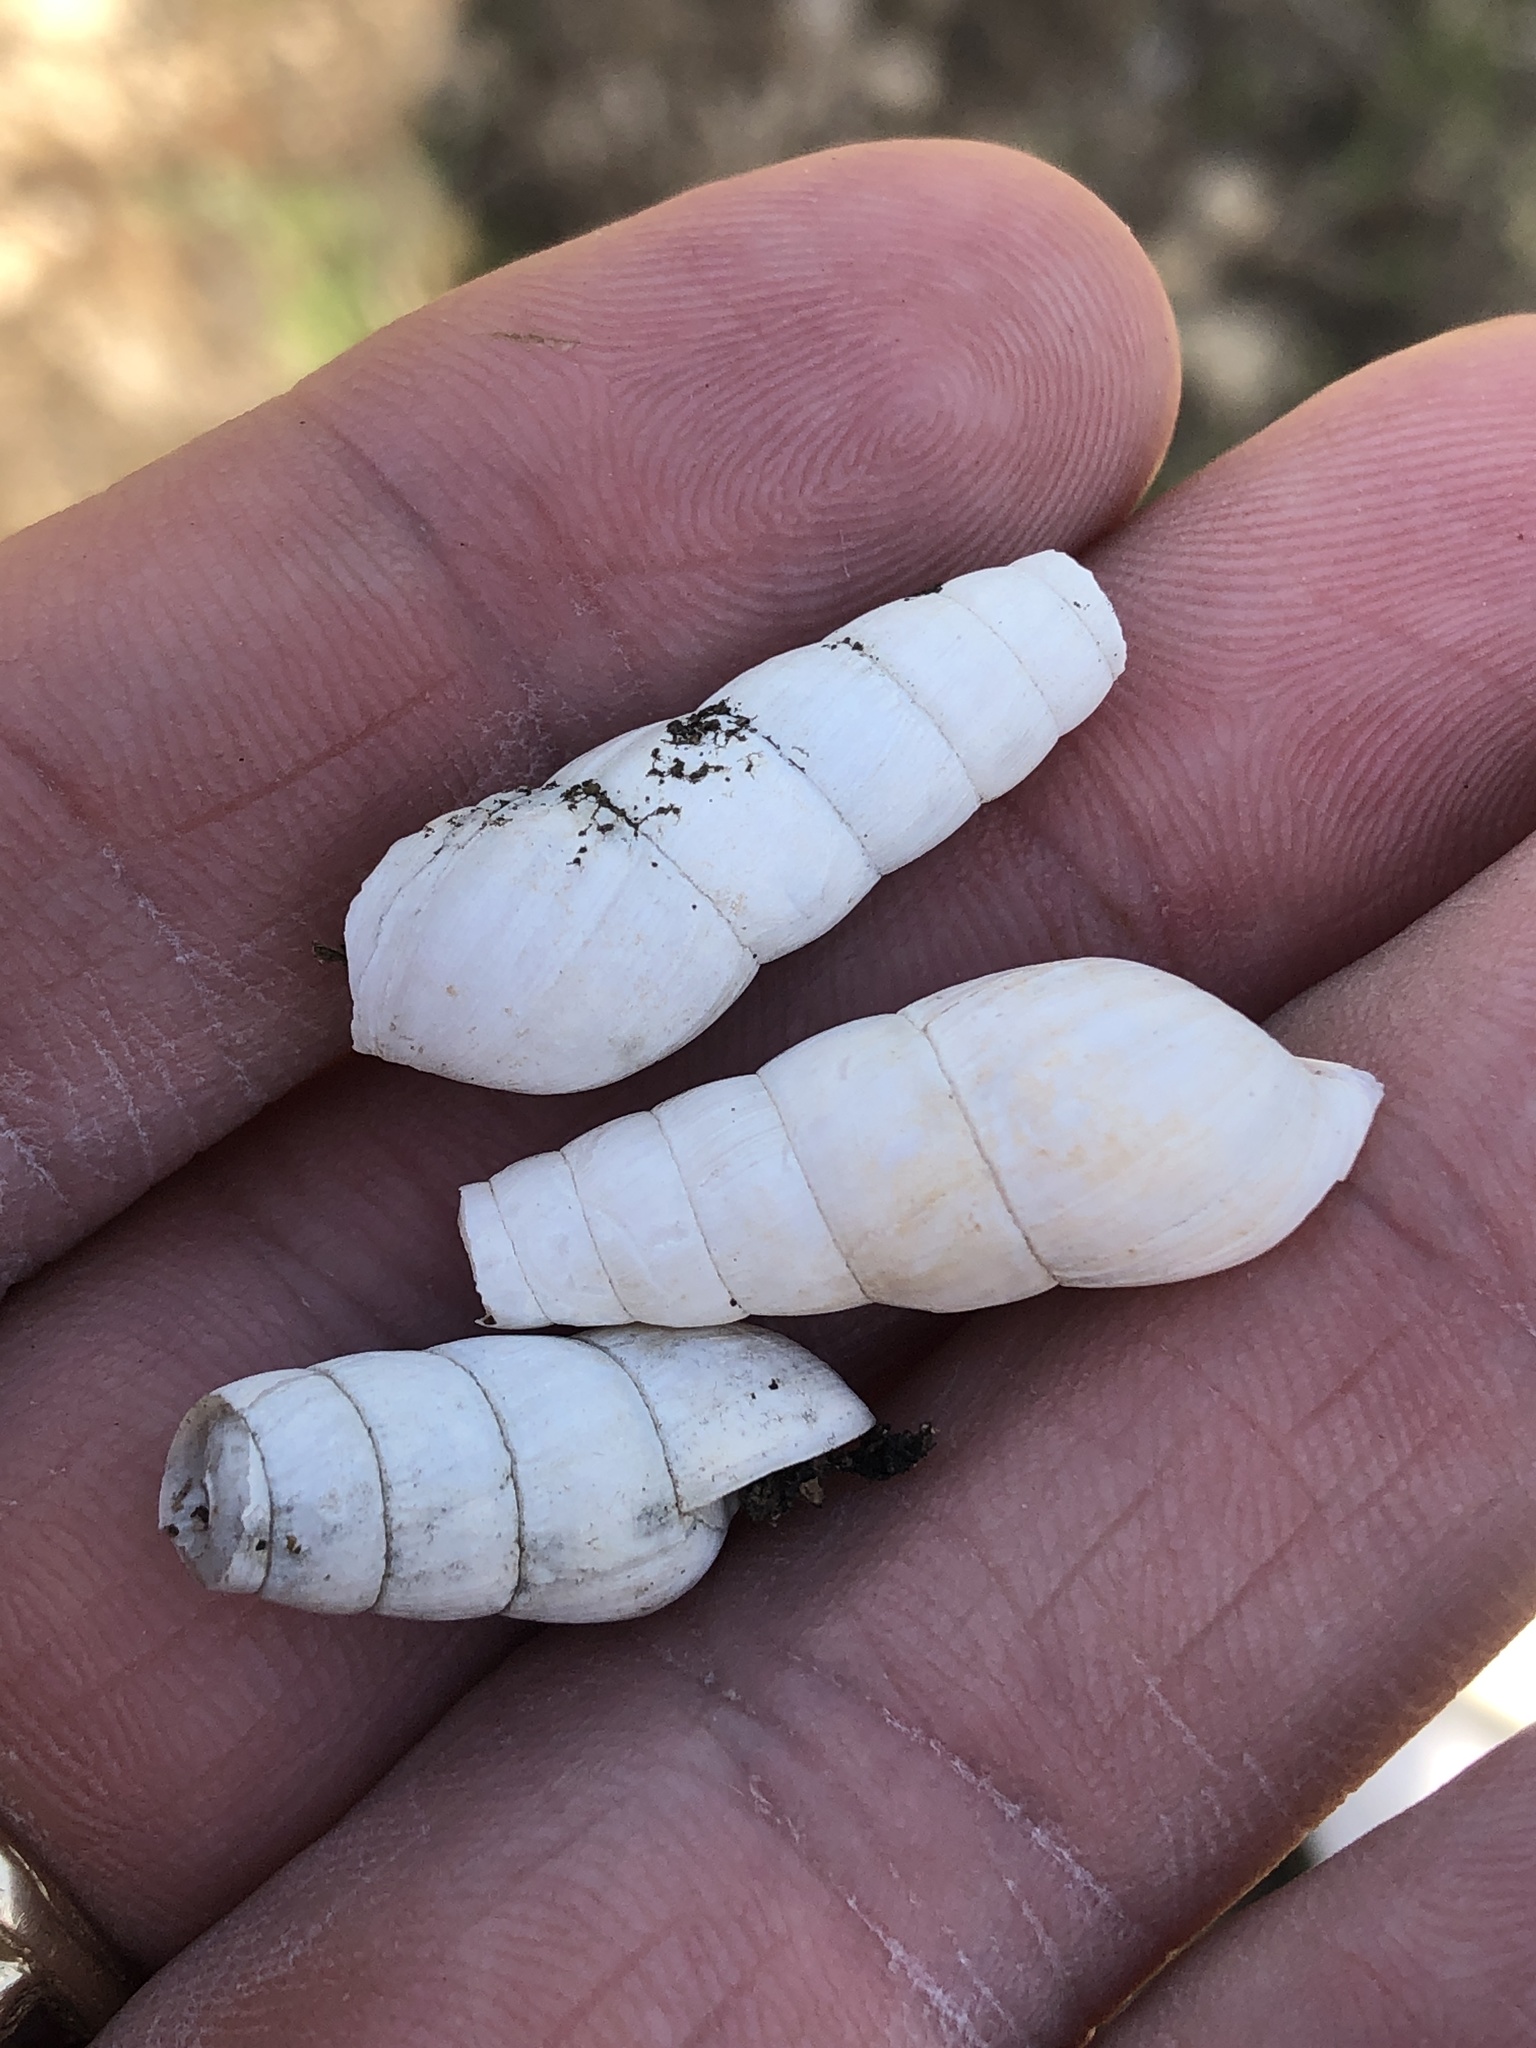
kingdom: Animalia
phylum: Mollusca
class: Gastropoda
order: Stylommatophora
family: Achatinidae
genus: Rumina
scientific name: Rumina decollata
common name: Decollate snail
